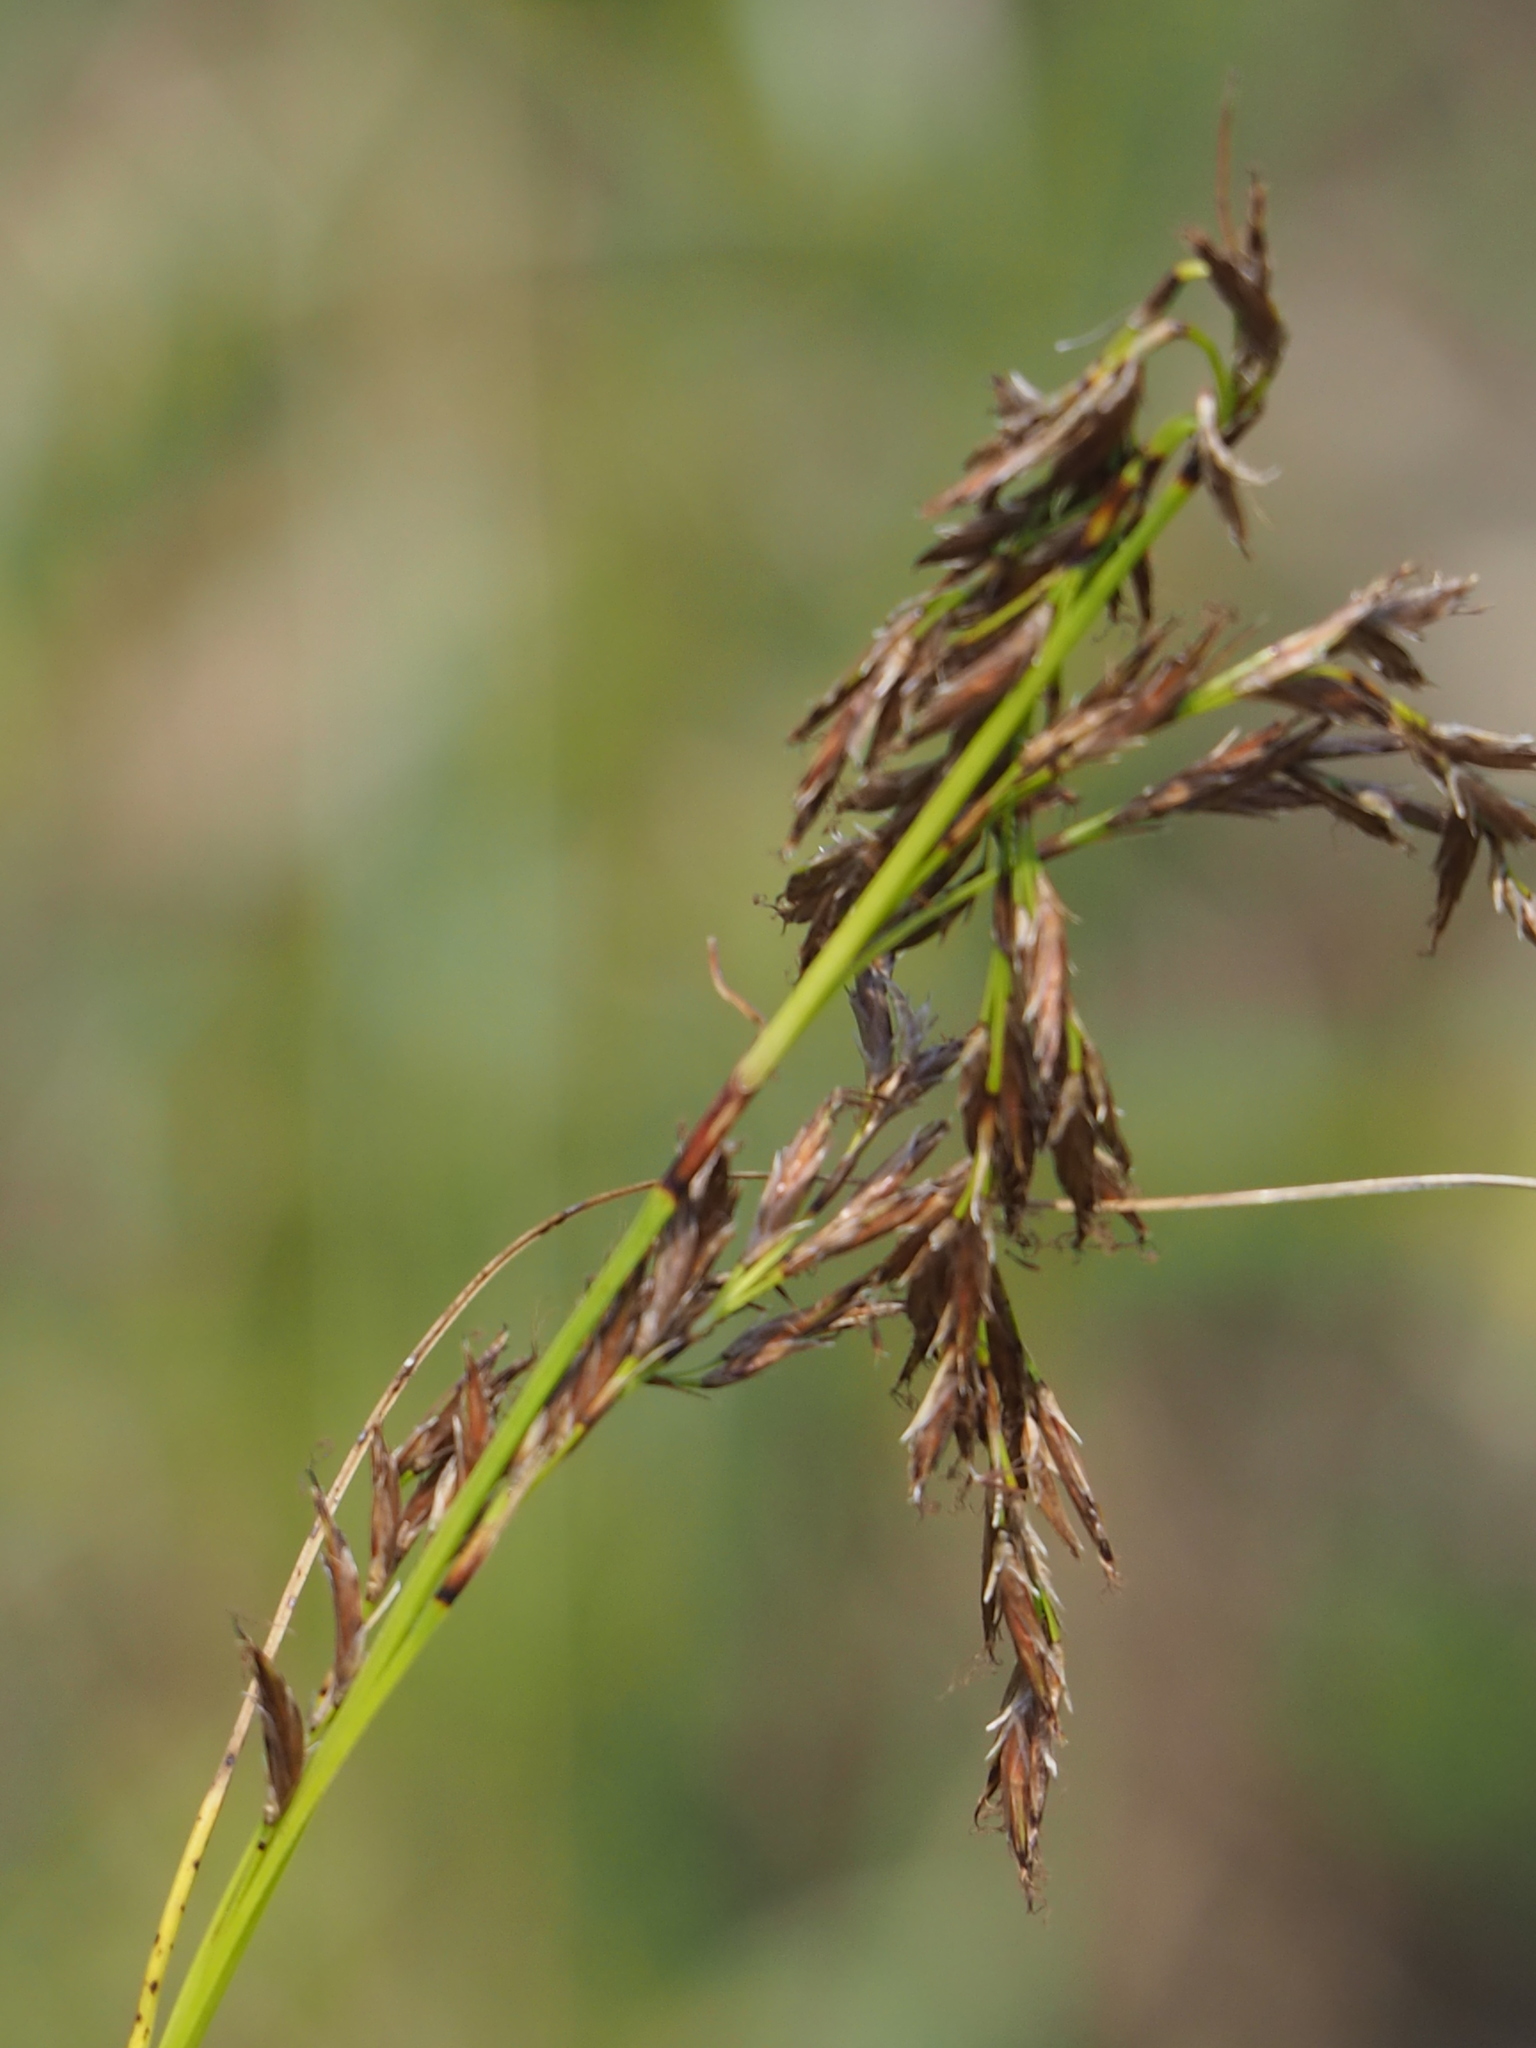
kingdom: Plantae
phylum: Tracheophyta
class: Liliopsida
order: Poales
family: Cyperaceae
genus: Schoenus
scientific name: Schoenus falcatus
